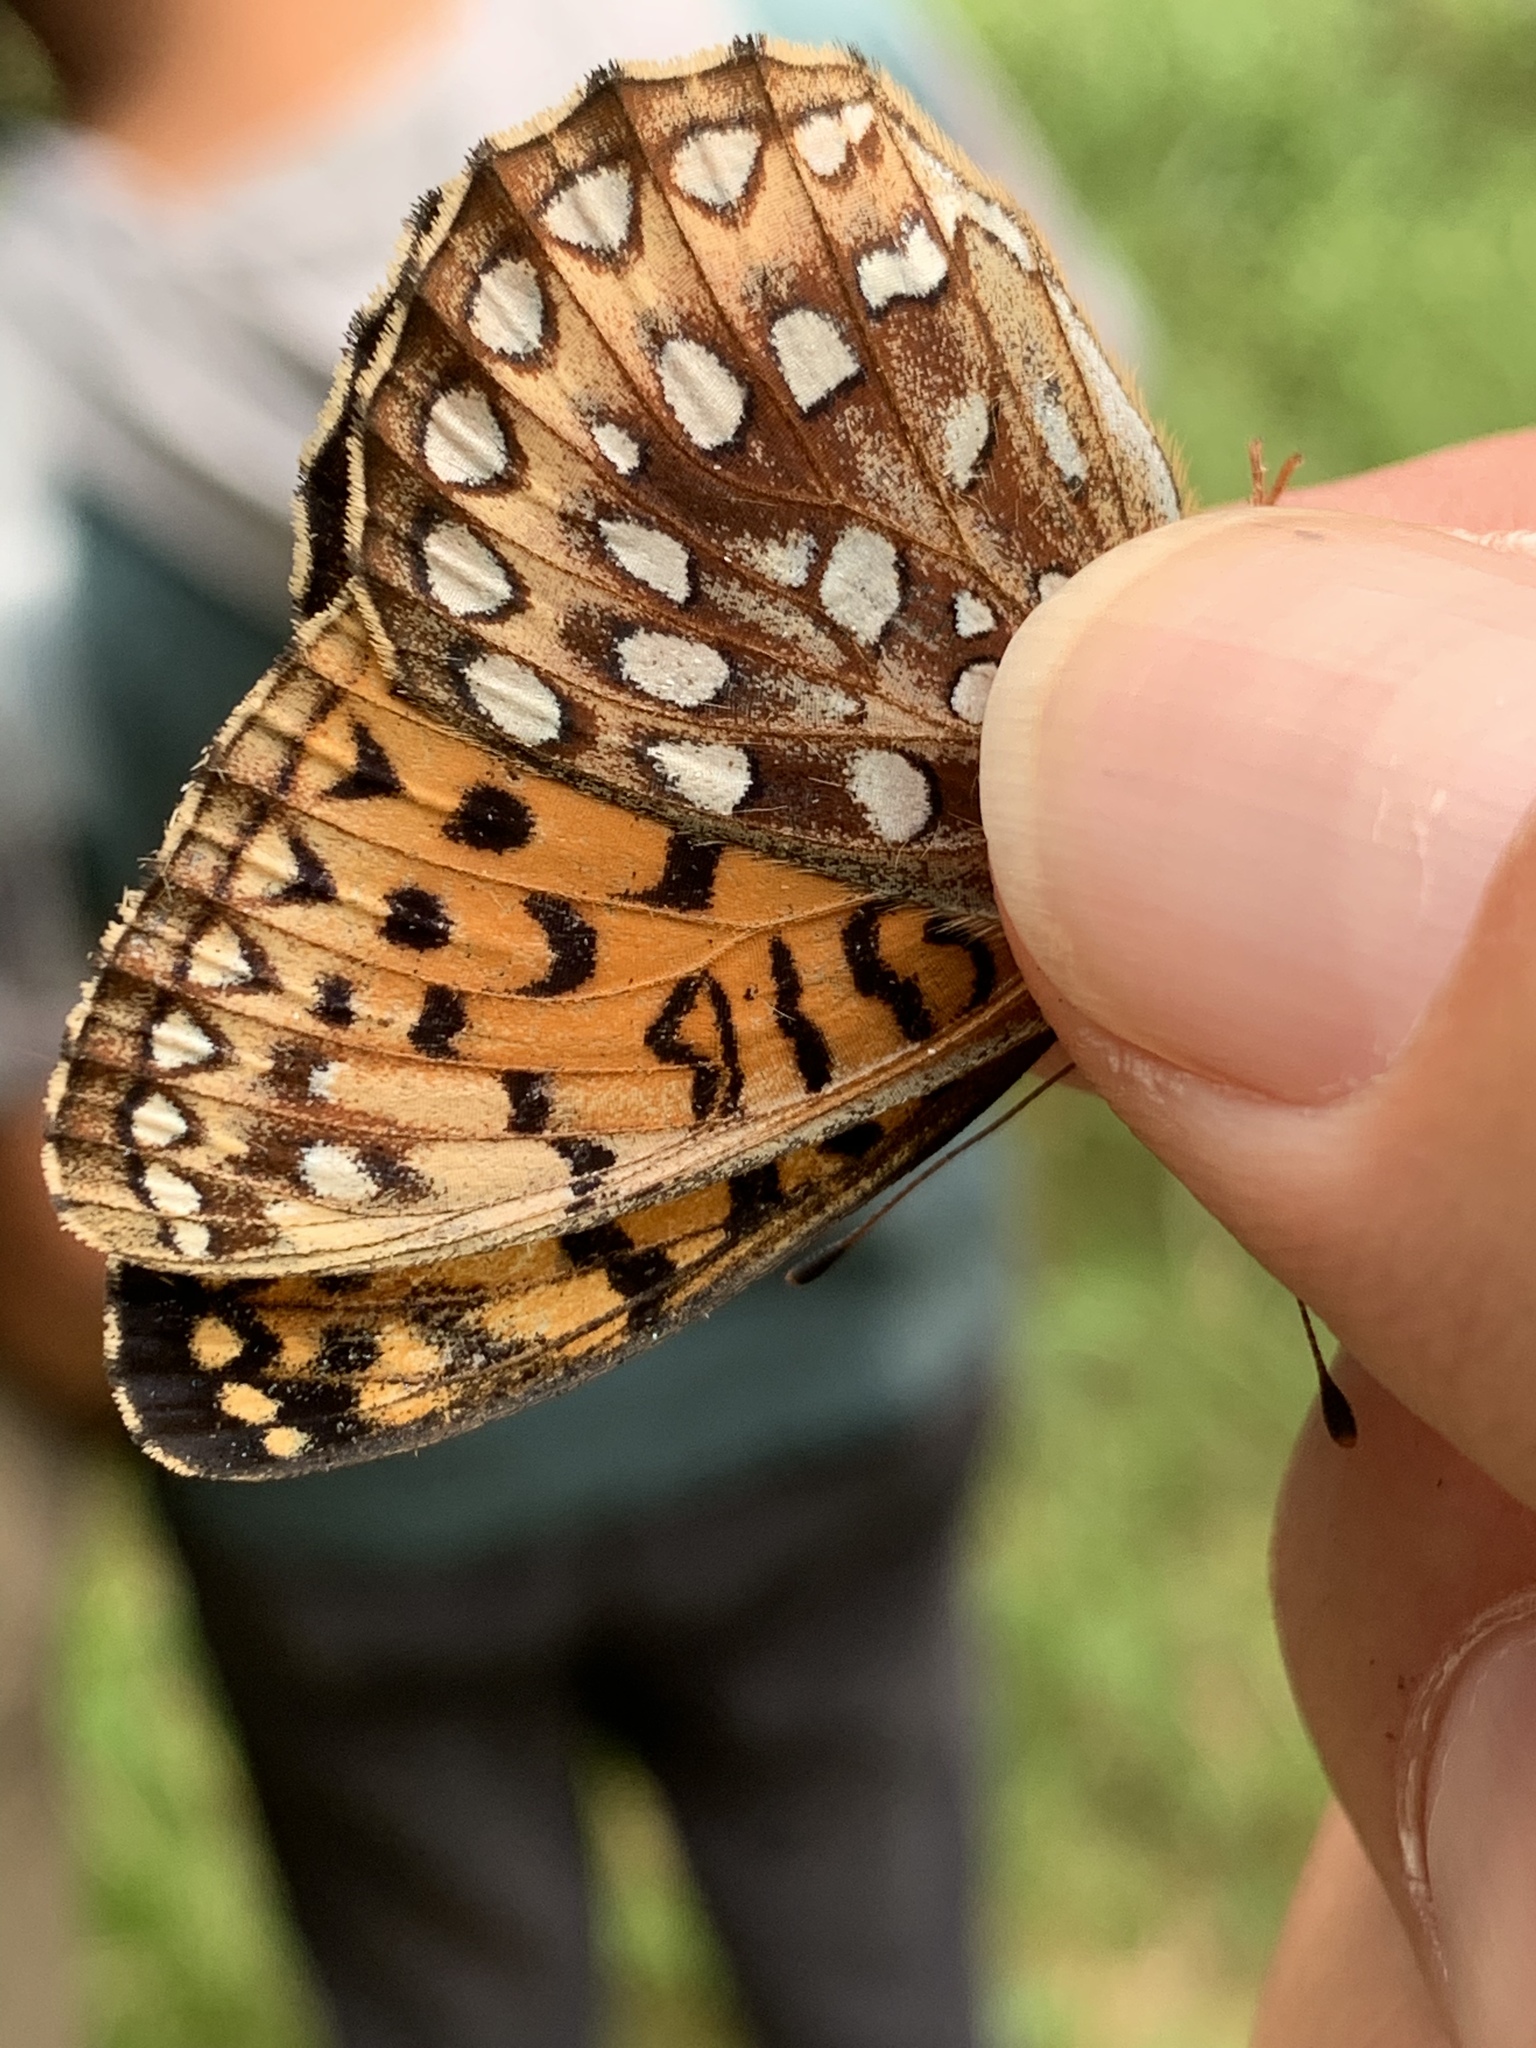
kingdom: Animalia
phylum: Arthropoda
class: Insecta
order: Lepidoptera
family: Nymphalidae
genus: Speyeria
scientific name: Speyeria atlantis
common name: Atlantis fritillary
